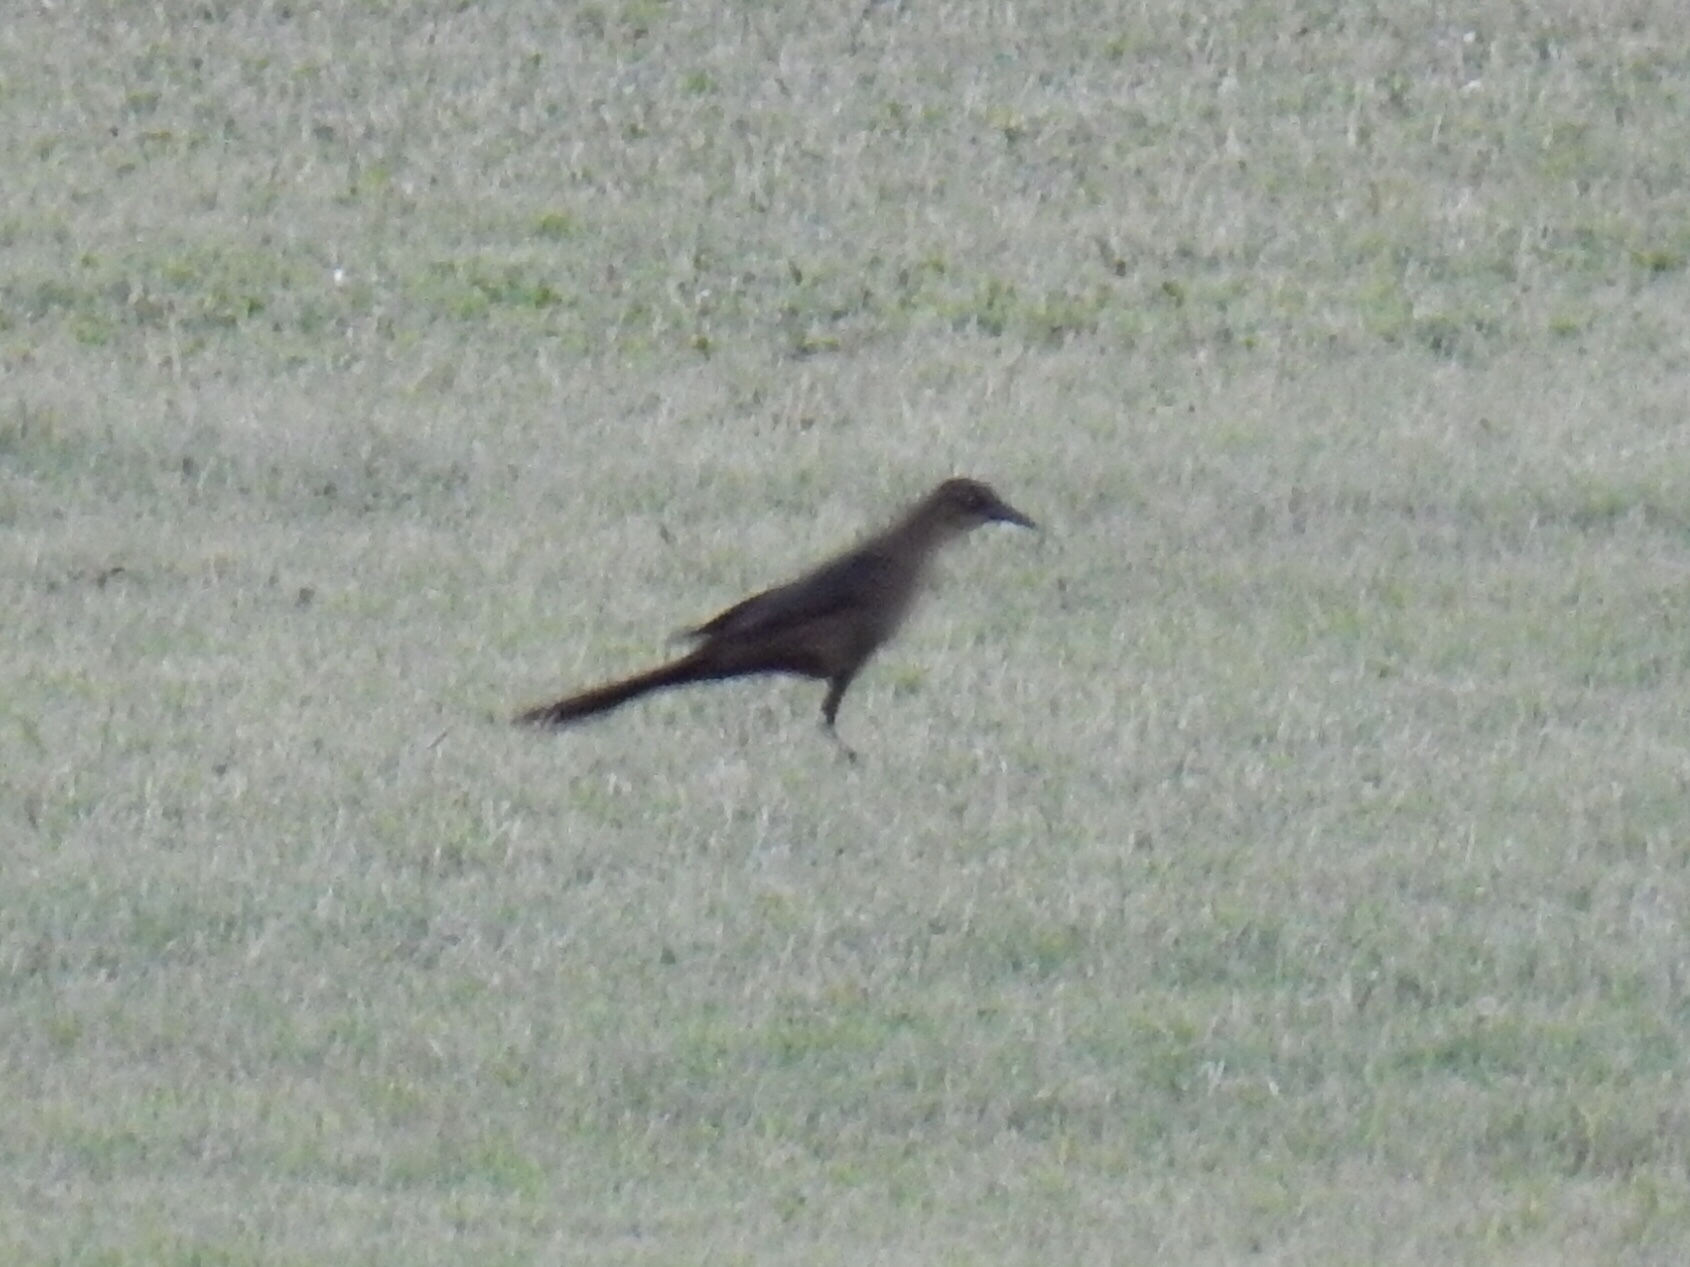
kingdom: Animalia
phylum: Chordata
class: Aves
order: Passeriformes
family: Icteridae
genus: Quiscalus
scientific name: Quiscalus mexicanus
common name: Great-tailed grackle
